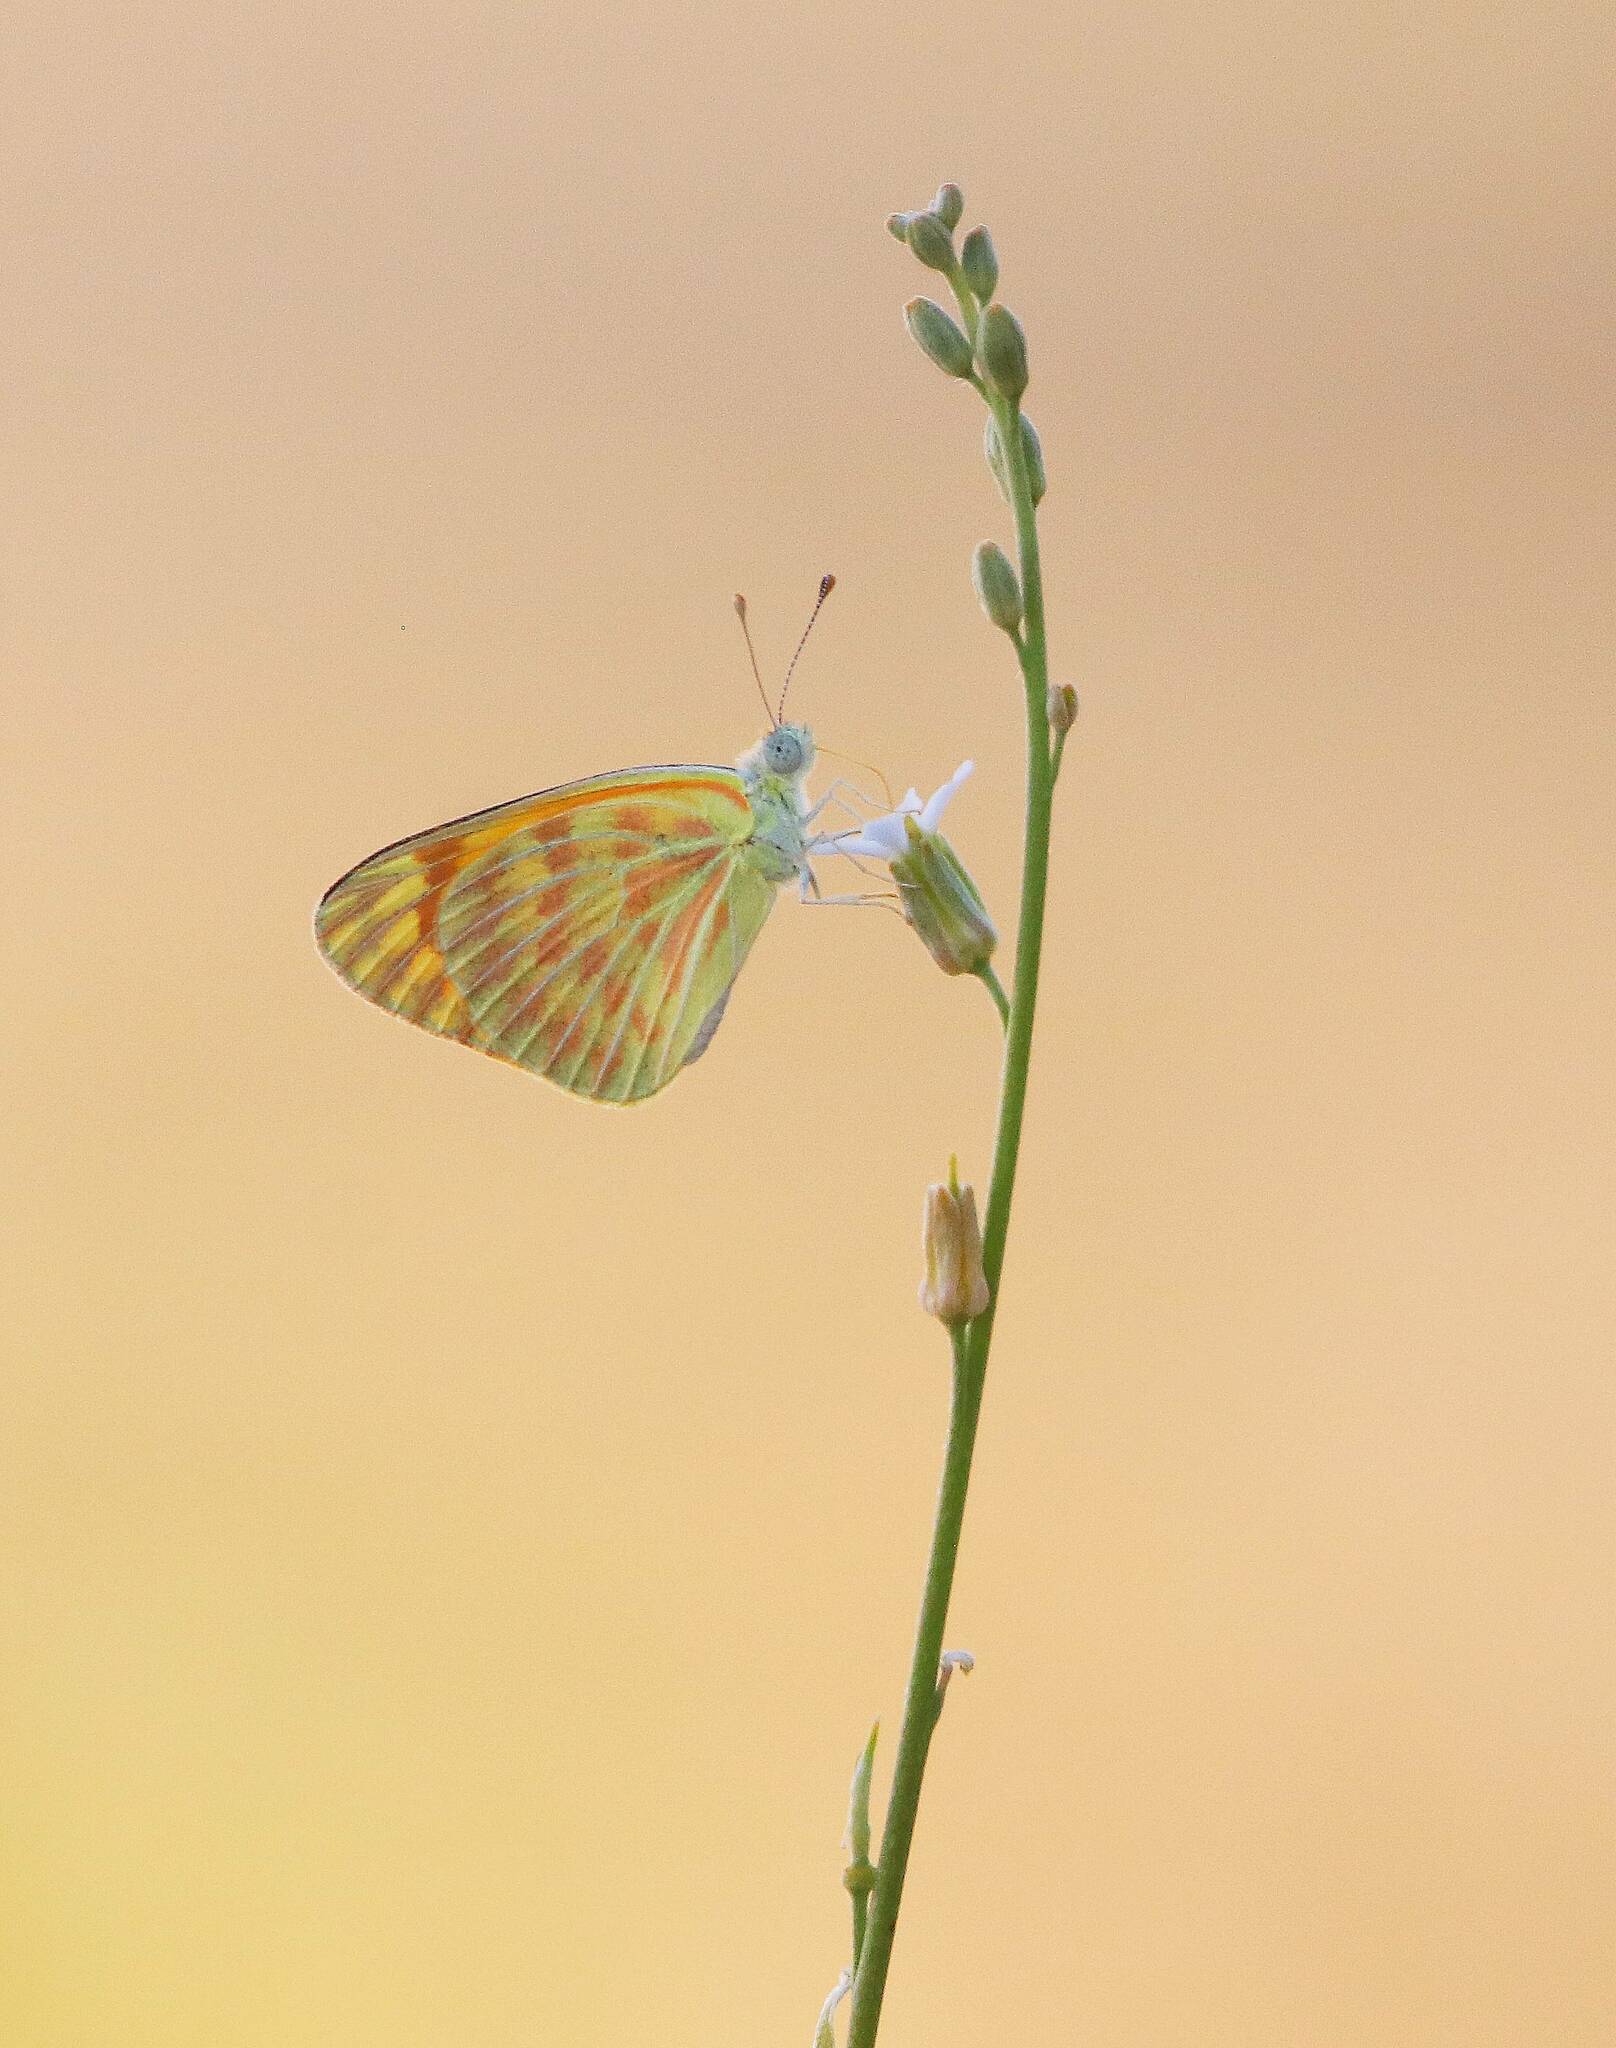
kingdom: Animalia
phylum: Arthropoda
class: Insecta
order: Lepidoptera
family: Pieridae
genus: Pontia
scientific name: Pontia glauconome
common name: Desert bath white
